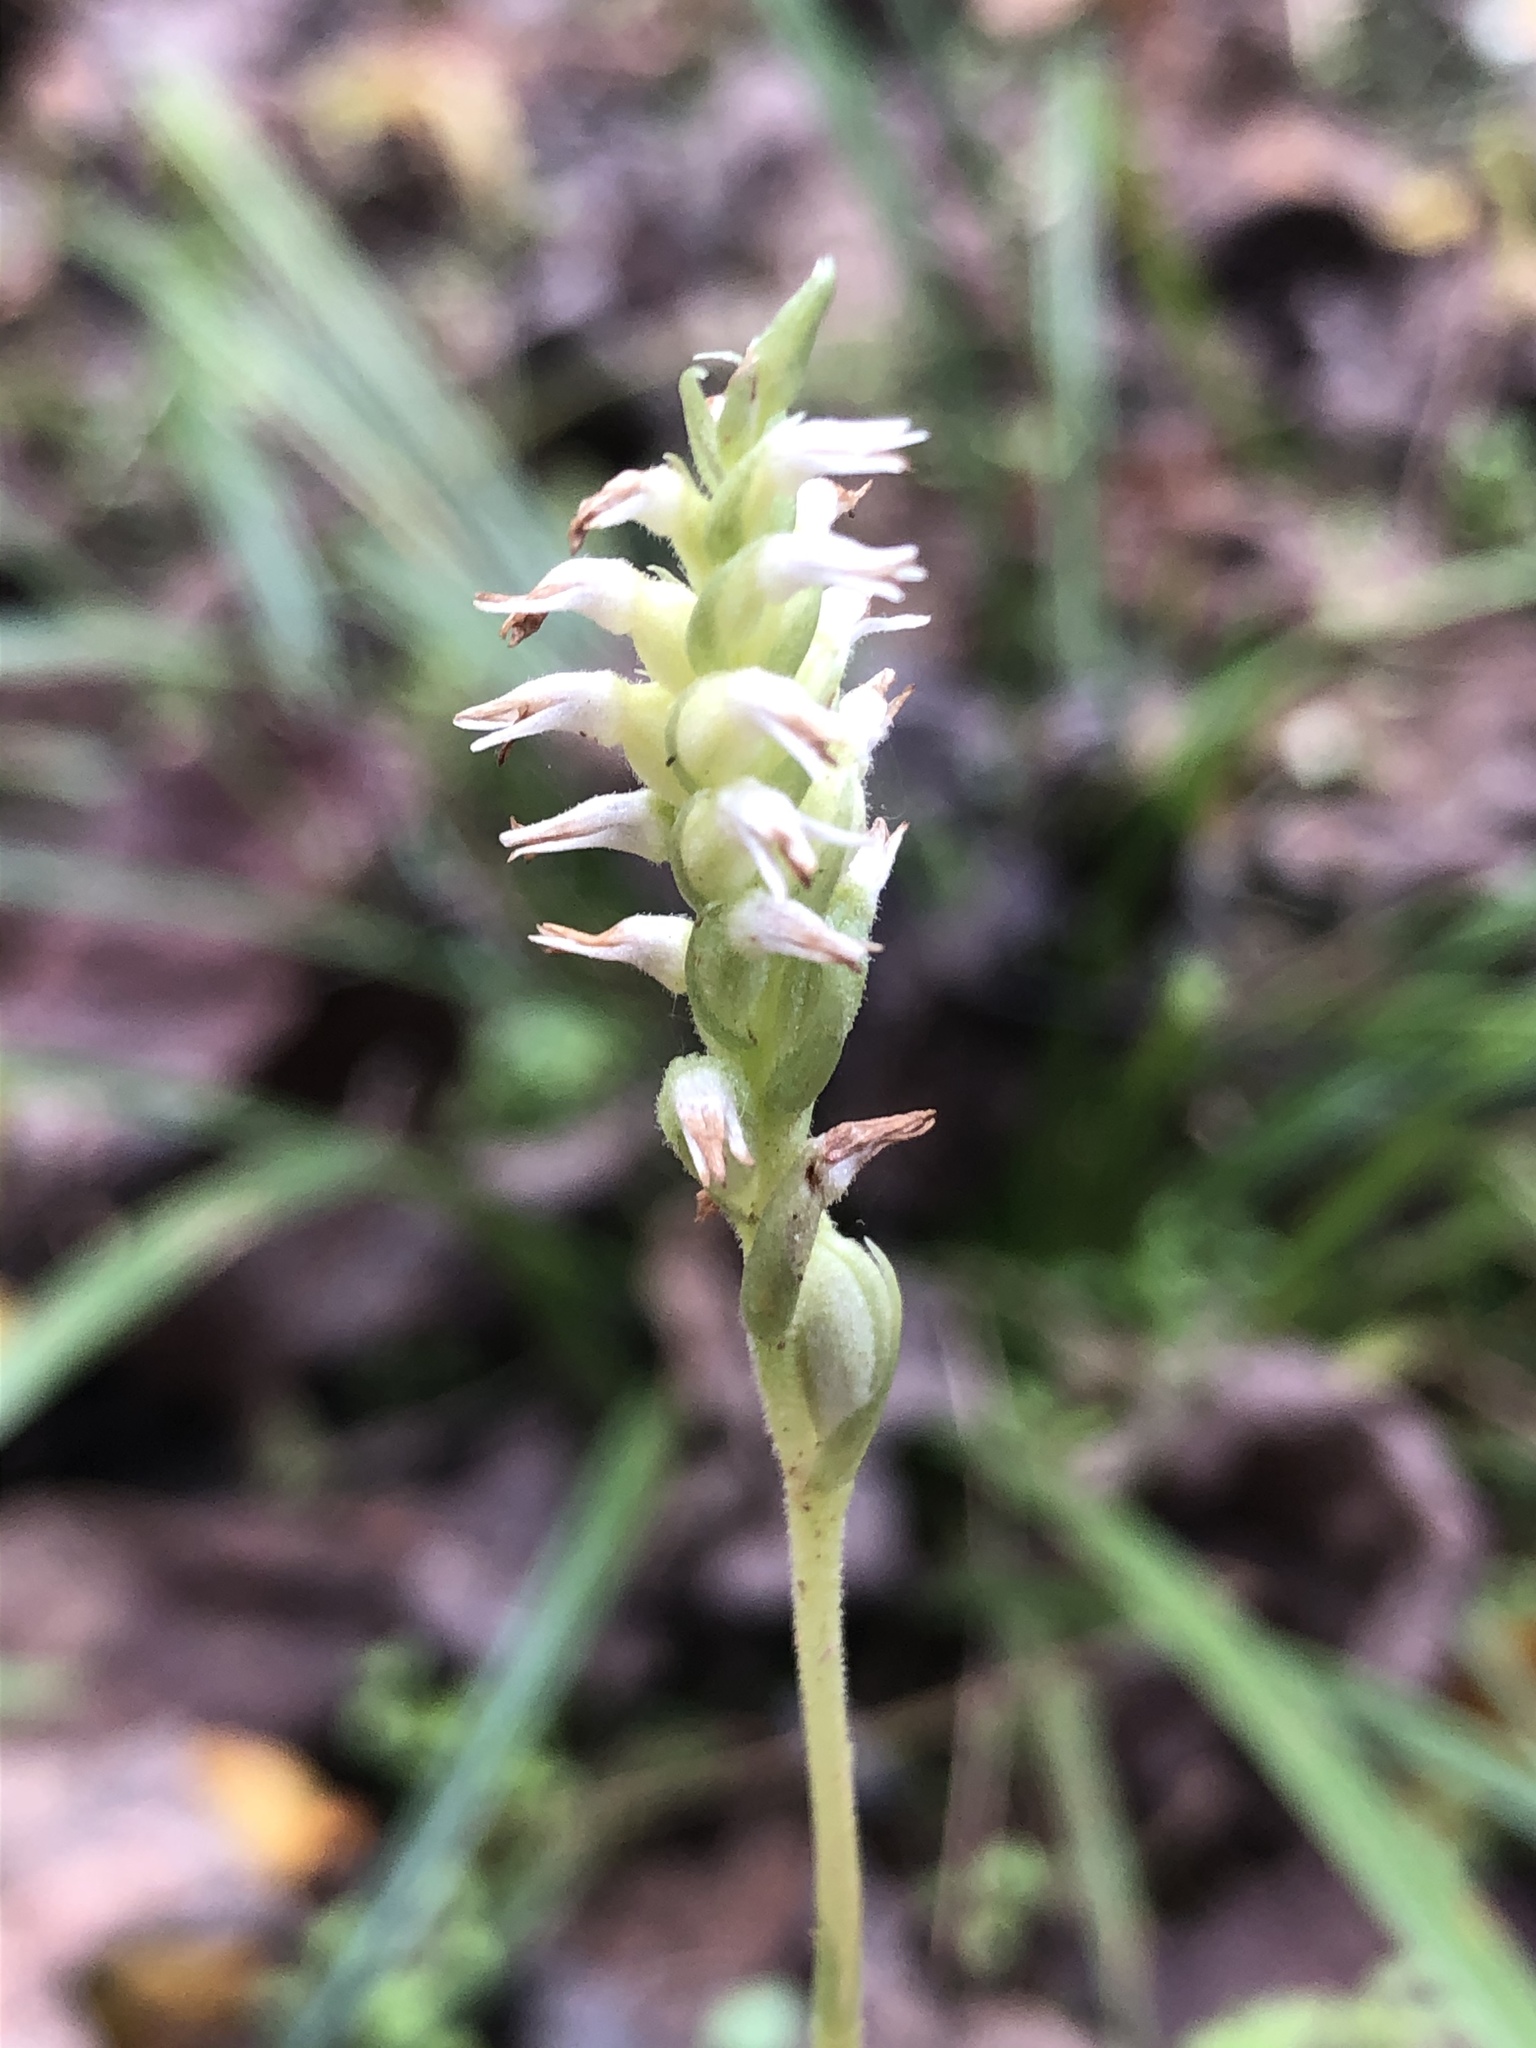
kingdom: Plantae
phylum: Tracheophyta
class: Liliopsida
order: Asparagales
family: Orchidaceae
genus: Spiranthes
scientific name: Spiranthes ovalis
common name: October ladies'-tresses
